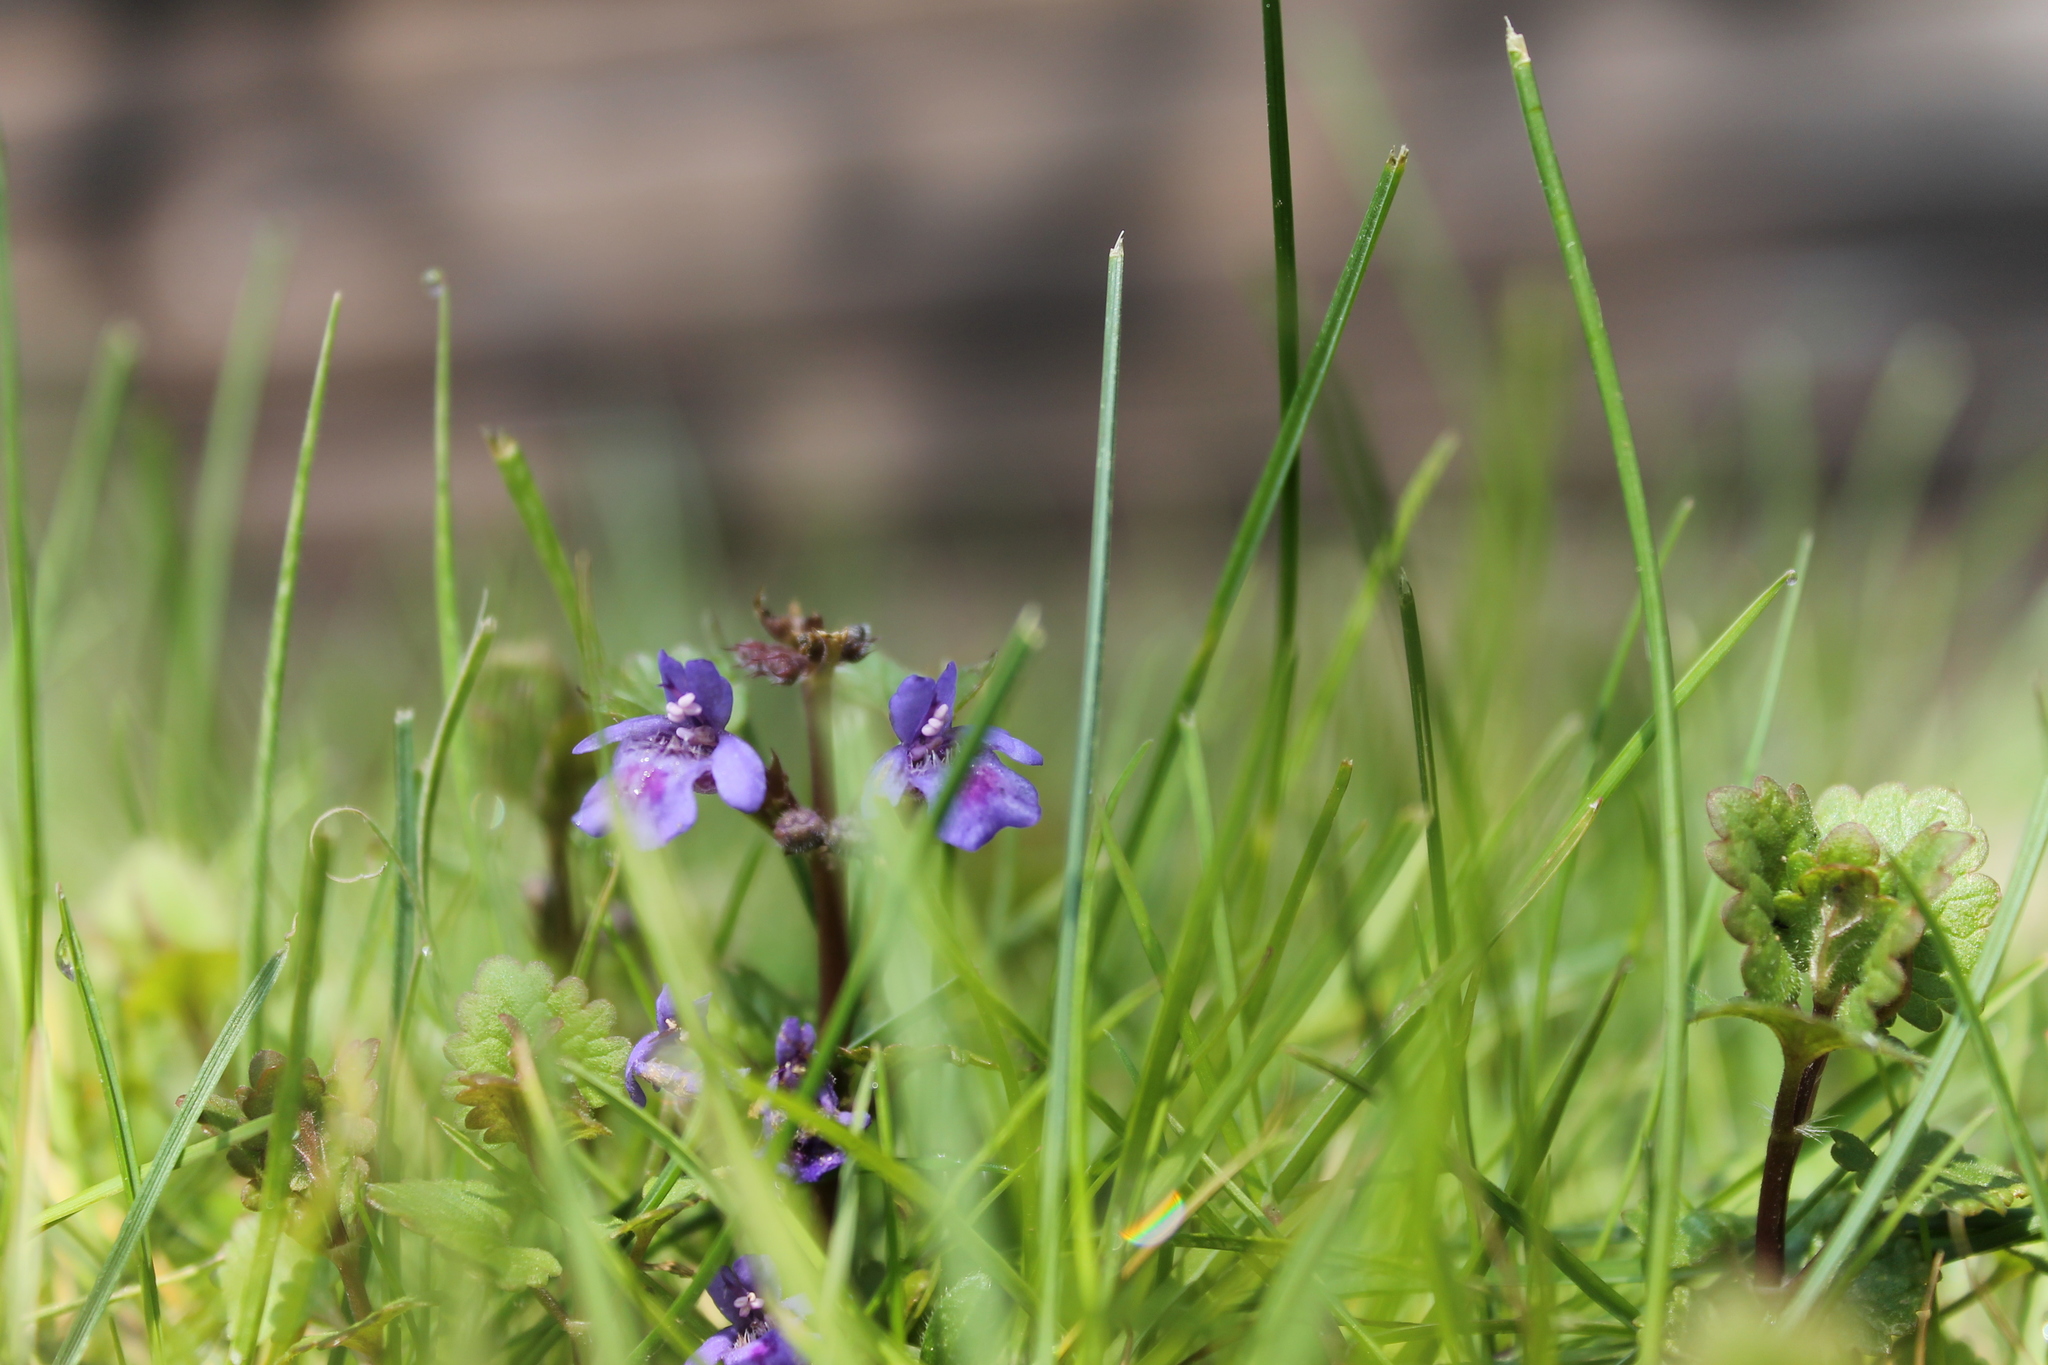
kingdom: Plantae
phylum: Tracheophyta
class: Magnoliopsida
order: Lamiales
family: Lamiaceae
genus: Glechoma
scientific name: Glechoma hederacea
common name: Ground ivy
